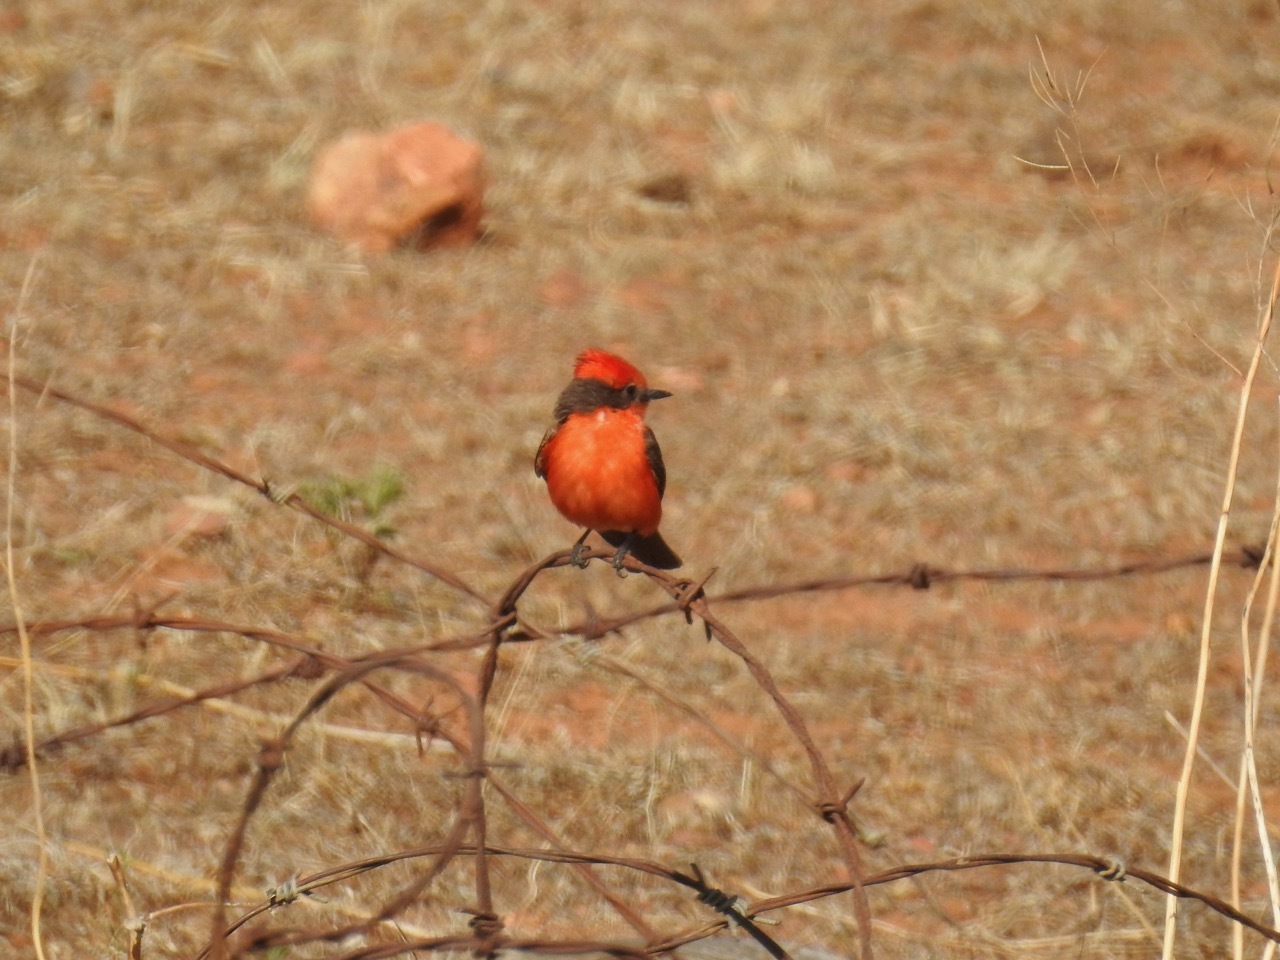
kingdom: Animalia
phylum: Chordata
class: Aves
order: Passeriformes
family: Tyrannidae
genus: Pyrocephalus
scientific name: Pyrocephalus rubinus
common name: Vermilion flycatcher
